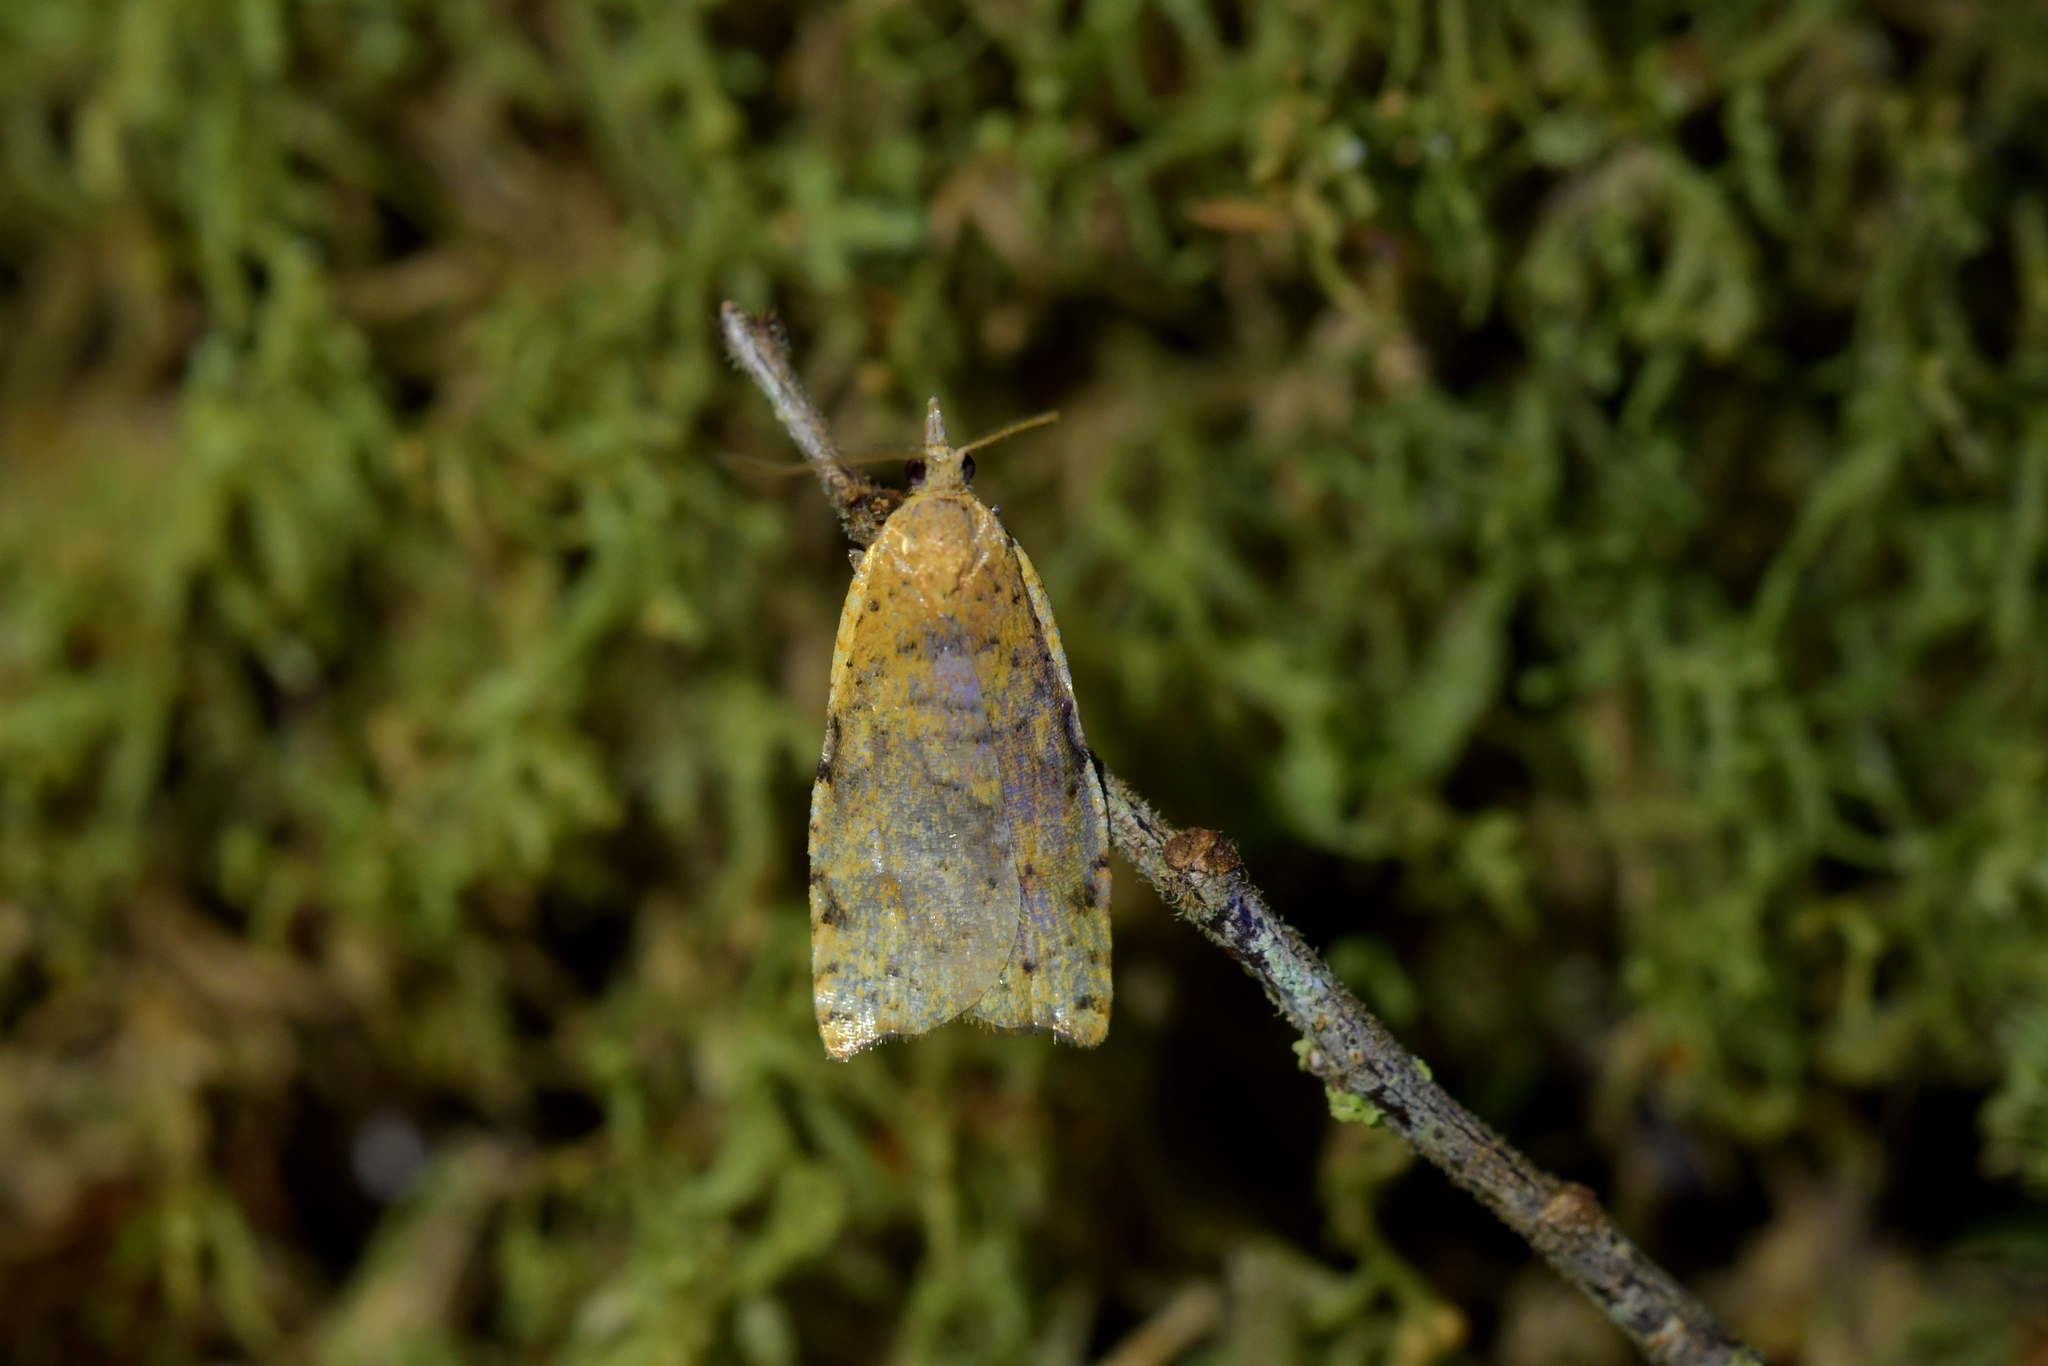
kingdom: Animalia
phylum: Arthropoda
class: Insecta
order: Lepidoptera
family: Tortricidae
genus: Apoctena
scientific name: Apoctena flavescens
